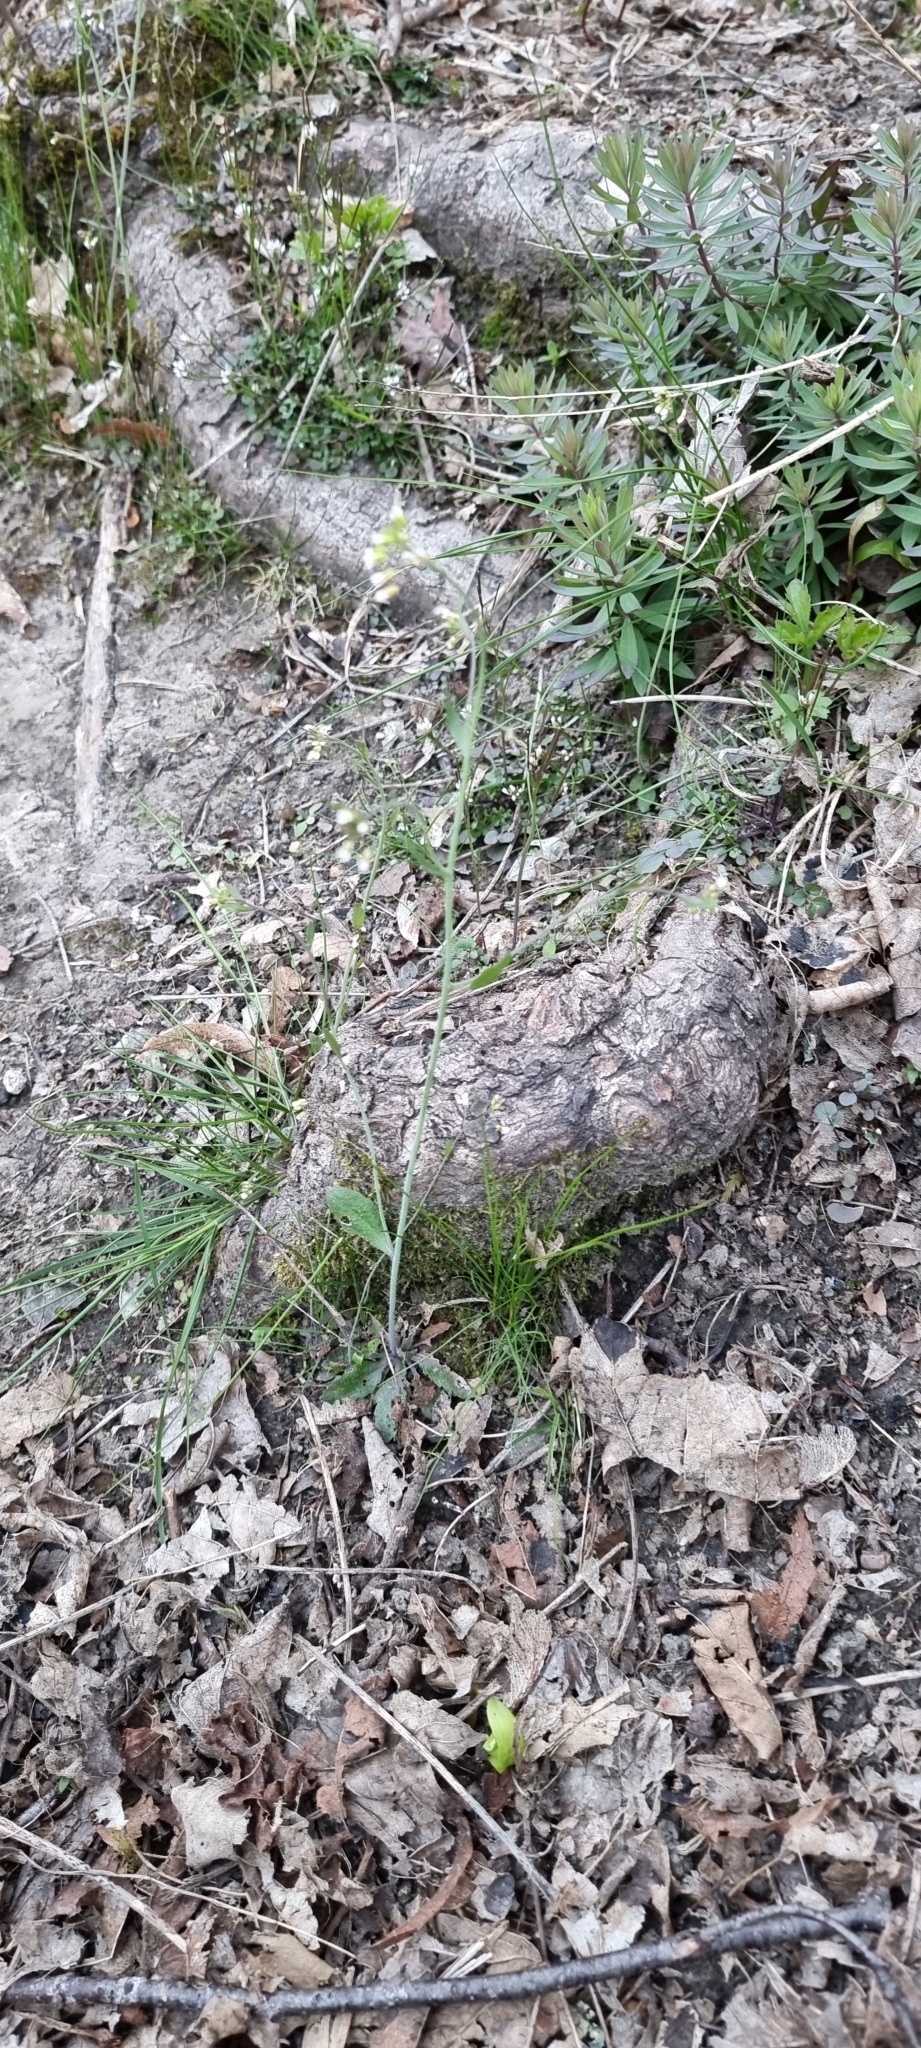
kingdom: Plantae
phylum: Tracheophyta
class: Magnoliopsida
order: Brassicales
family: Brassicaceae
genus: Arabidopsis
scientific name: Arabidopsis thaliana
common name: Thale cress
